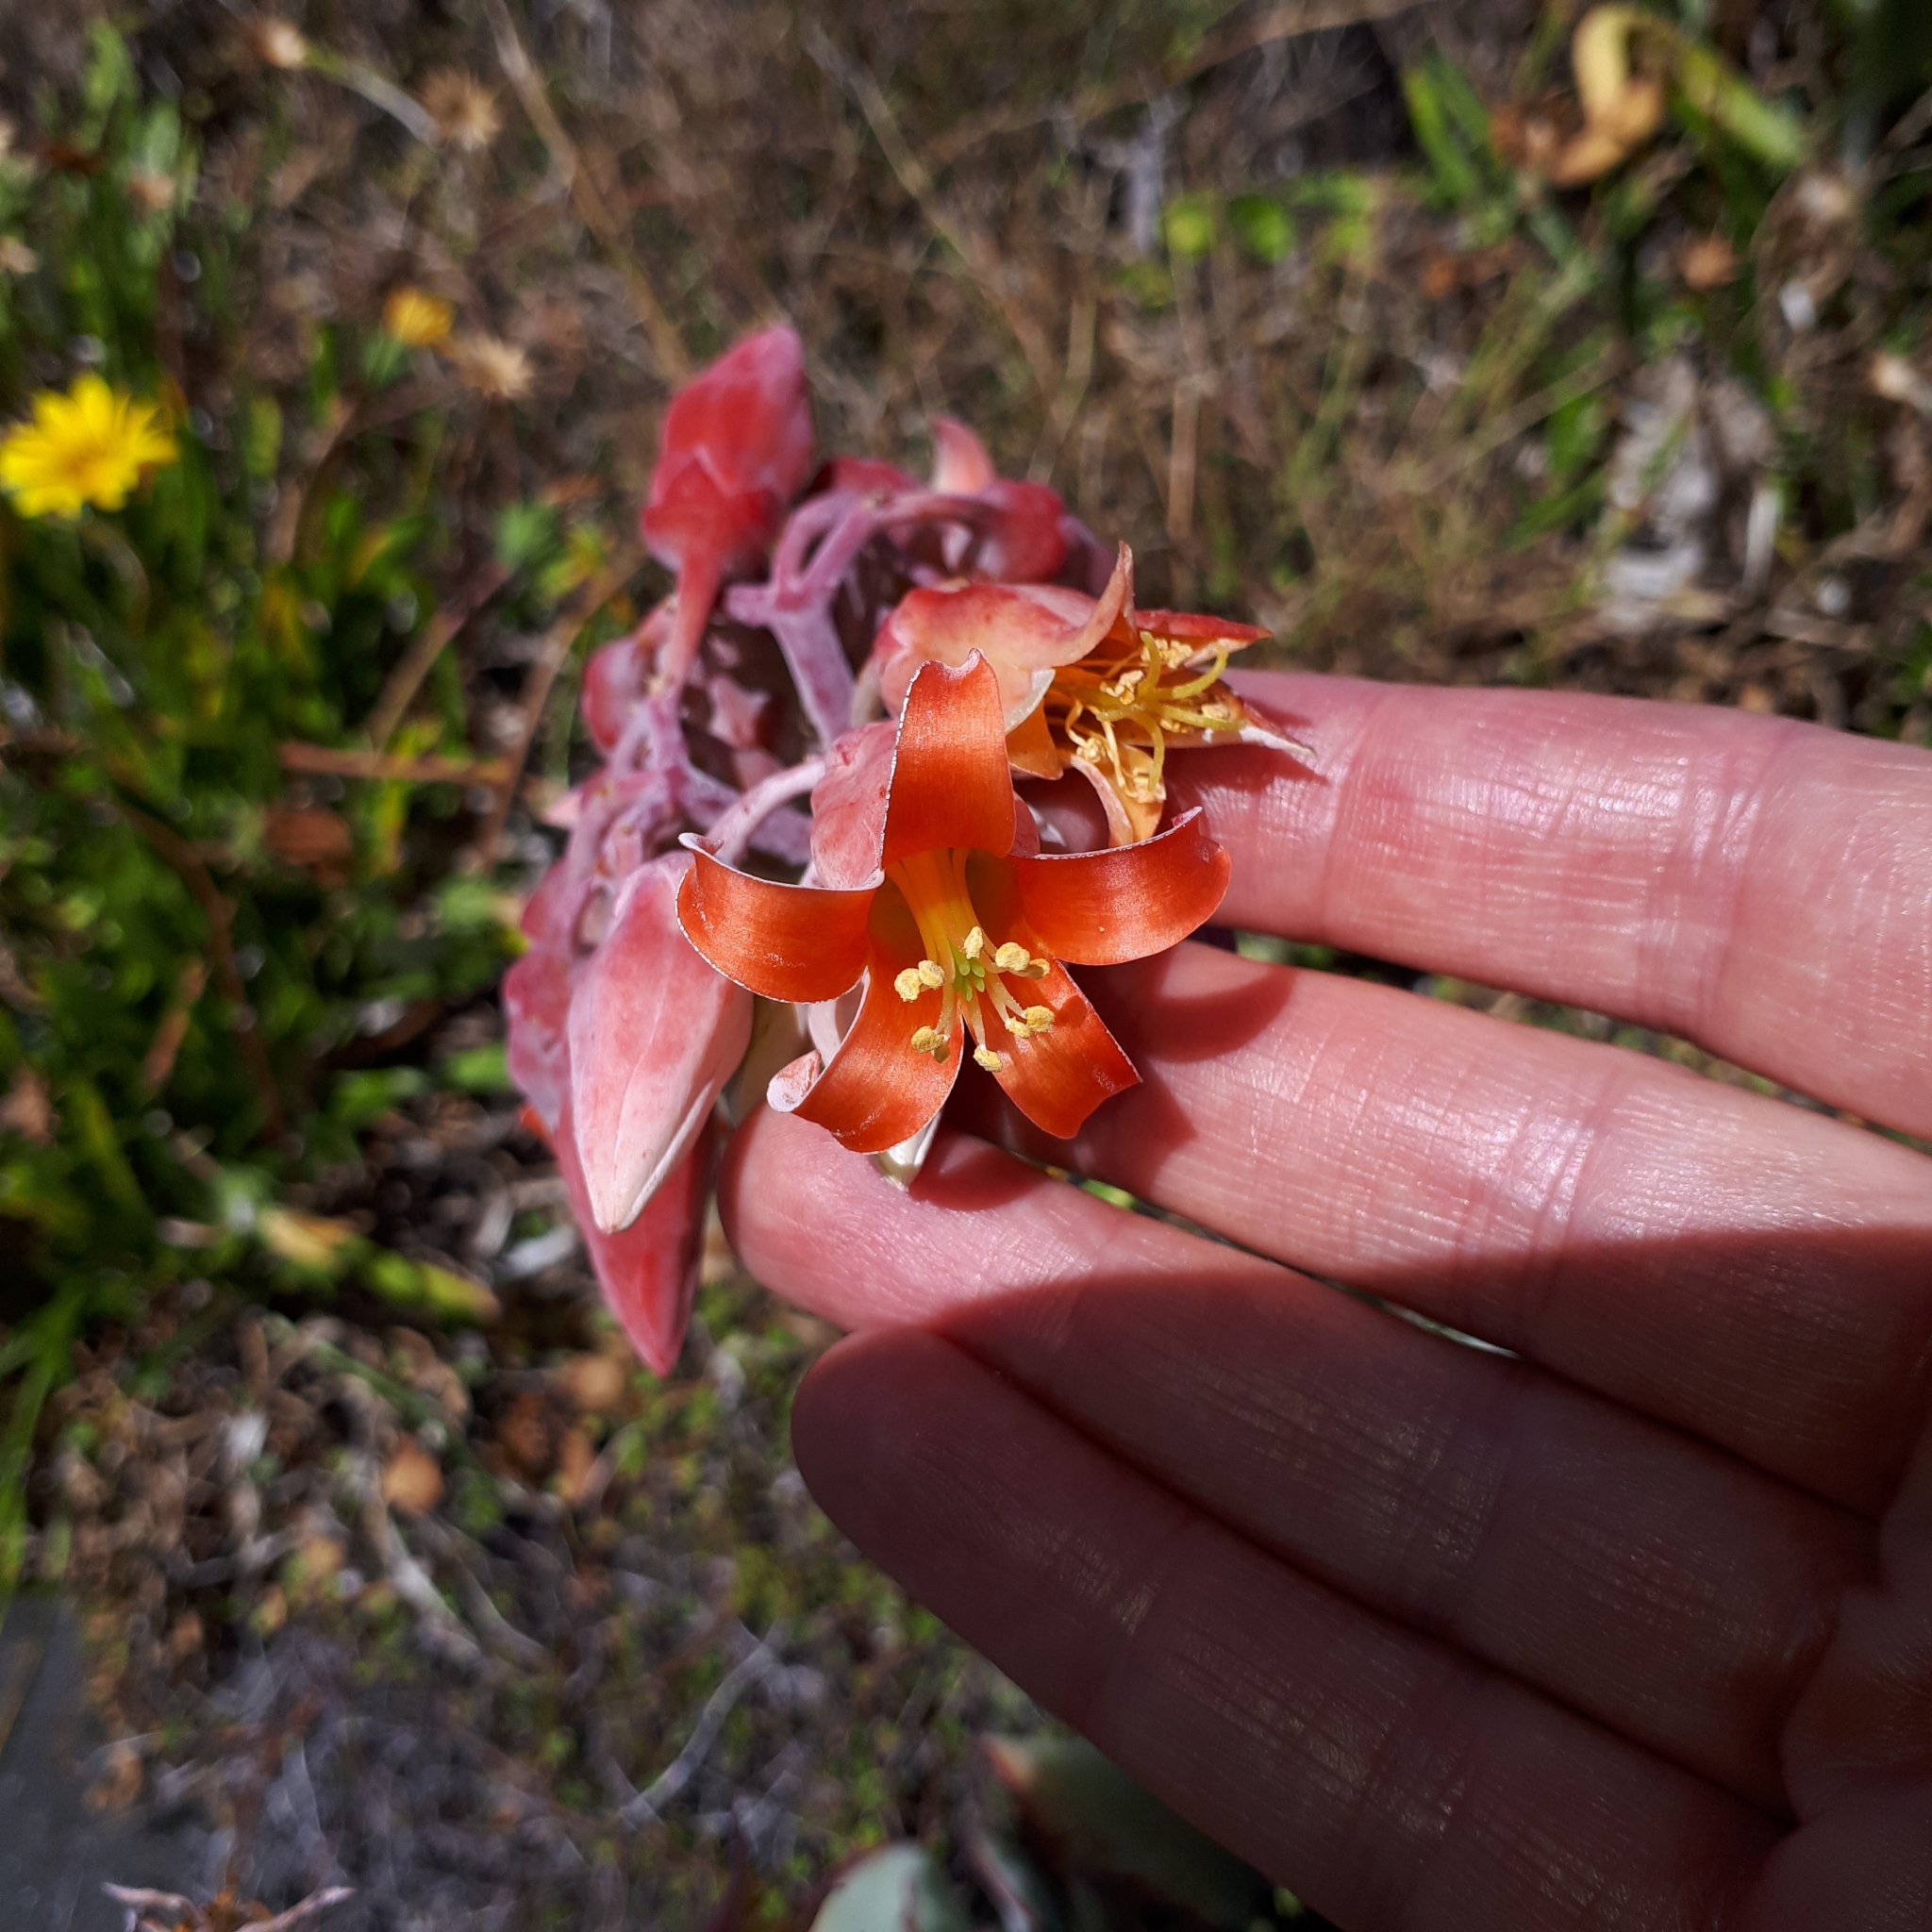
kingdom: Plantae
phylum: Tracheophyta
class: Magnoliopsida
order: Saxifragales
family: Crassulaceae
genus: Cotyledon
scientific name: Cotyledon orbiculata
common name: Pig's ear
